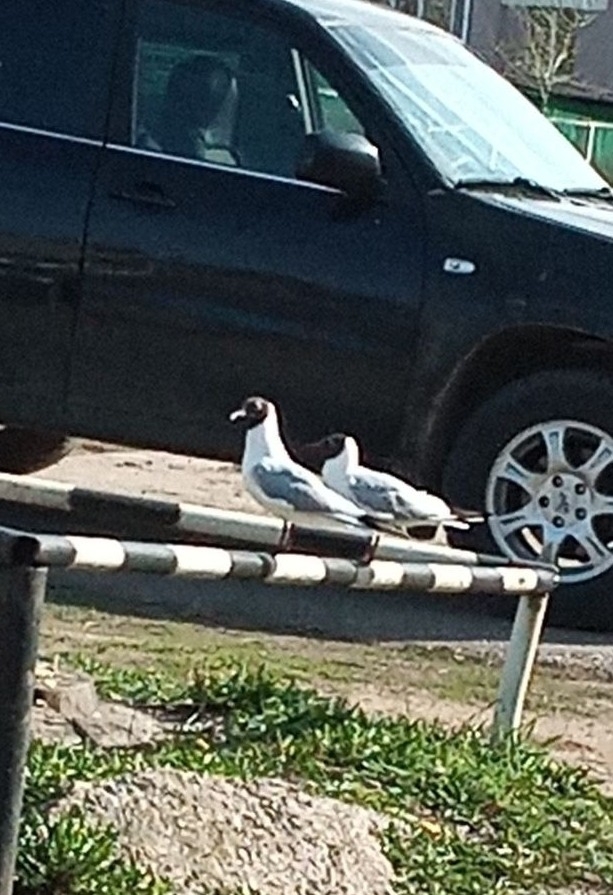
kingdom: Animalia
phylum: Chordata
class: Aves
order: Charadriiformes
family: Laridae
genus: Chroicocephalus
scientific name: Chroicocephalus ridibundus
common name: Black-headed gull
